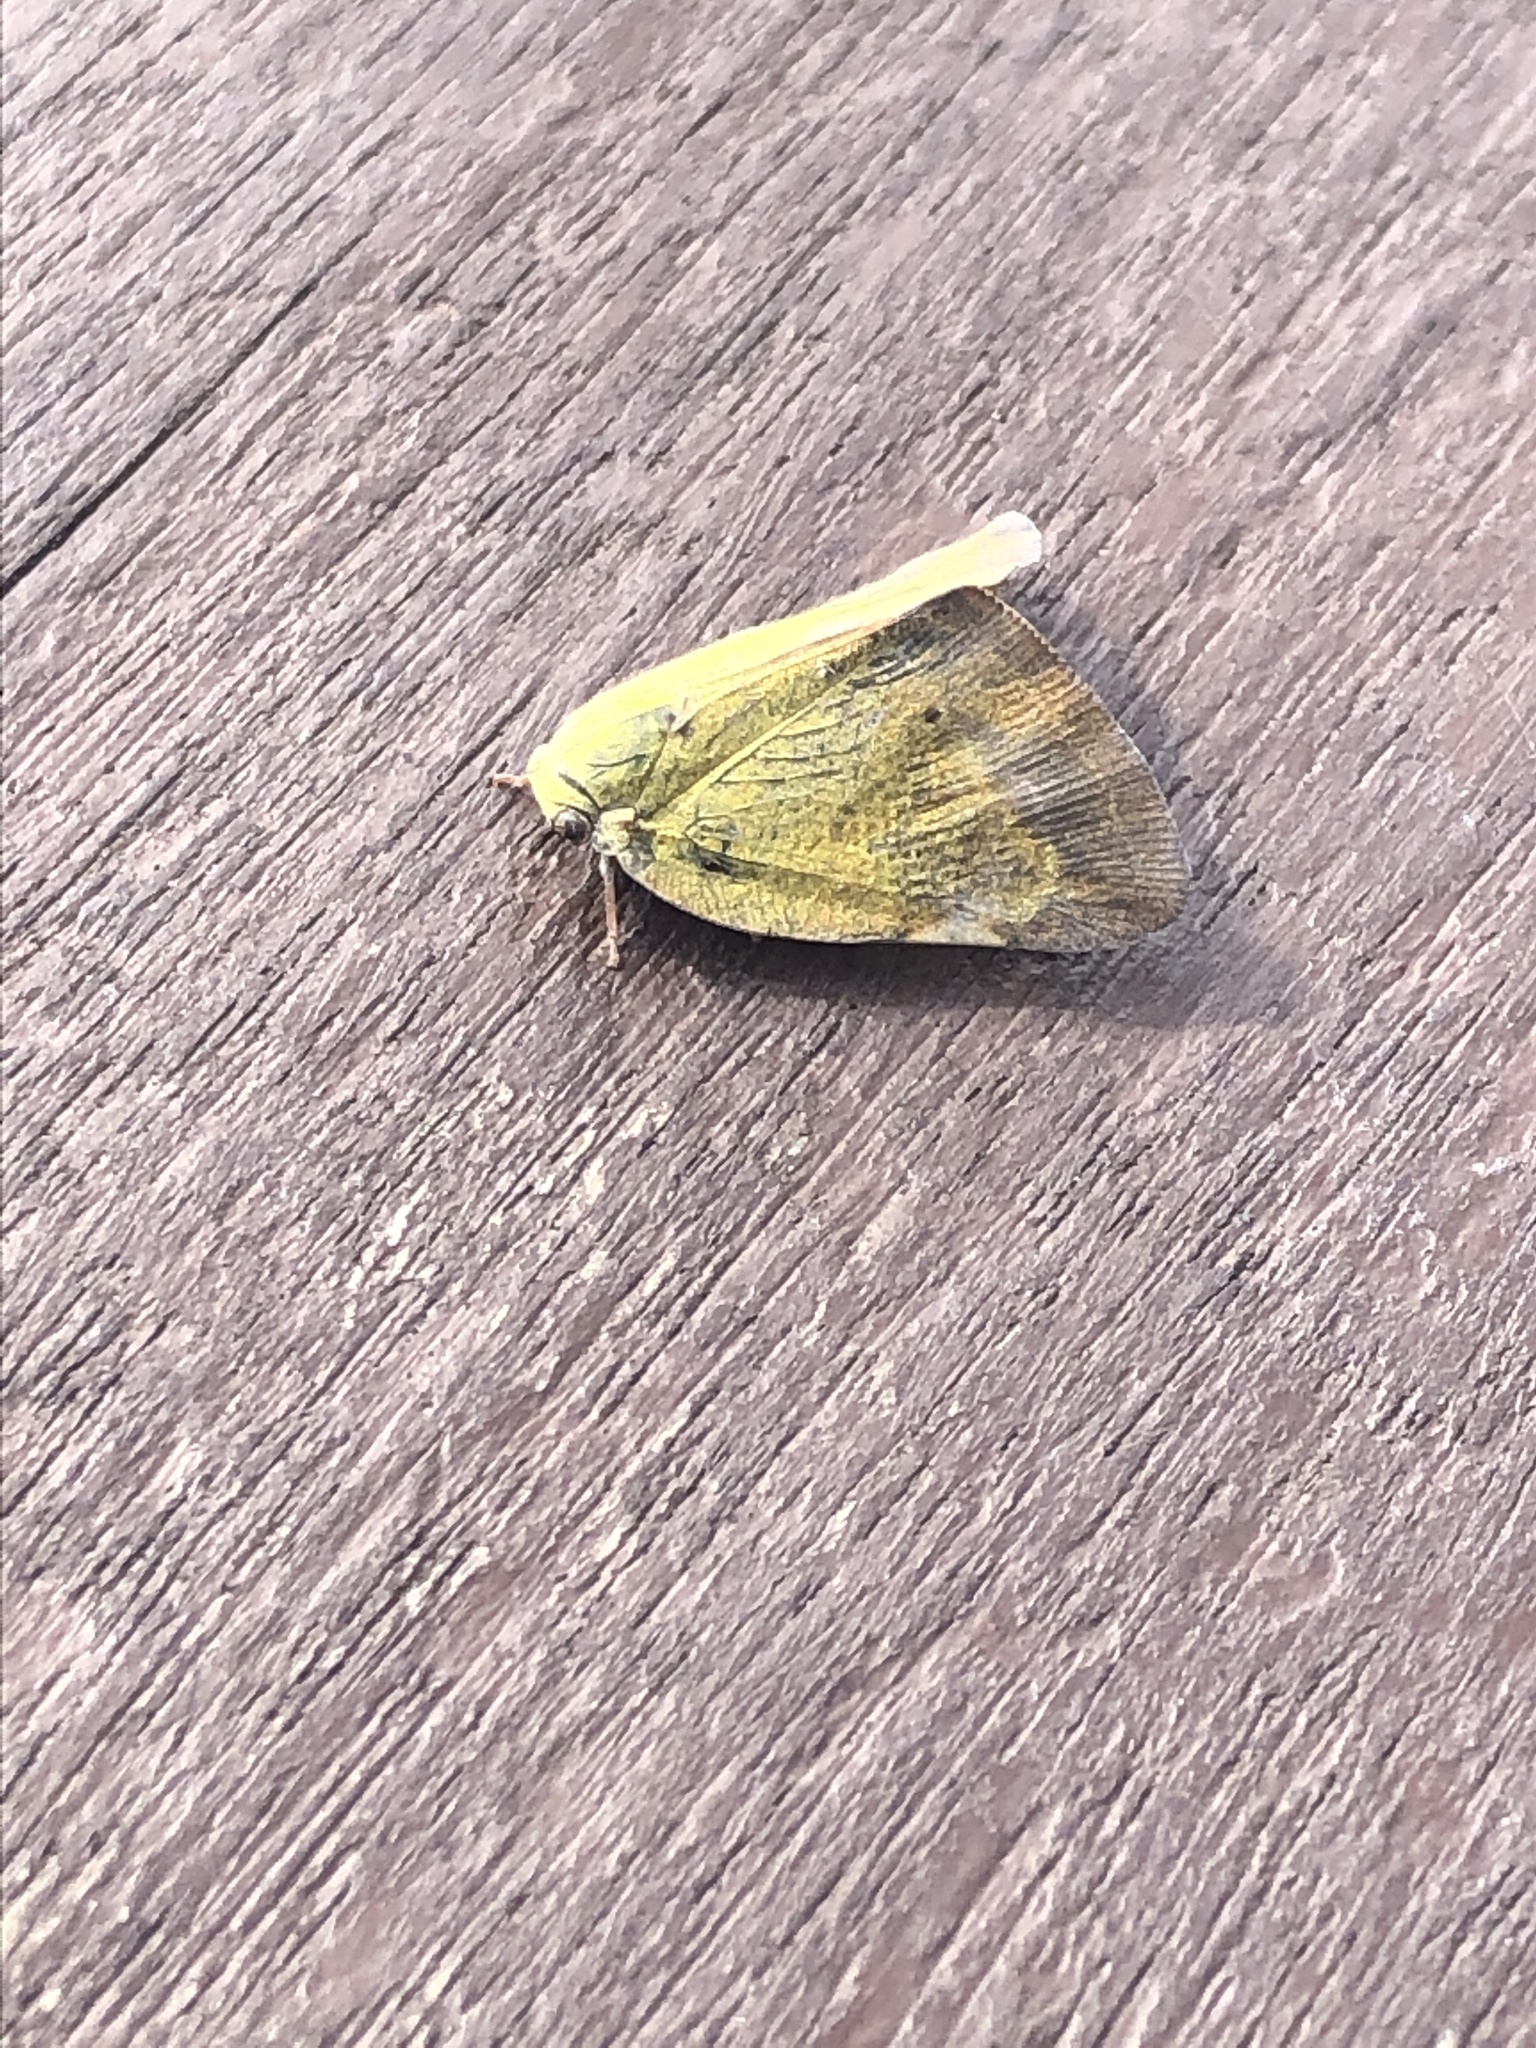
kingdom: Animalia
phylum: Arthropoda
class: Insecta
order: Hemiptera
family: Ricaniidae
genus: Ricanula
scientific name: Ricanula sublimata
